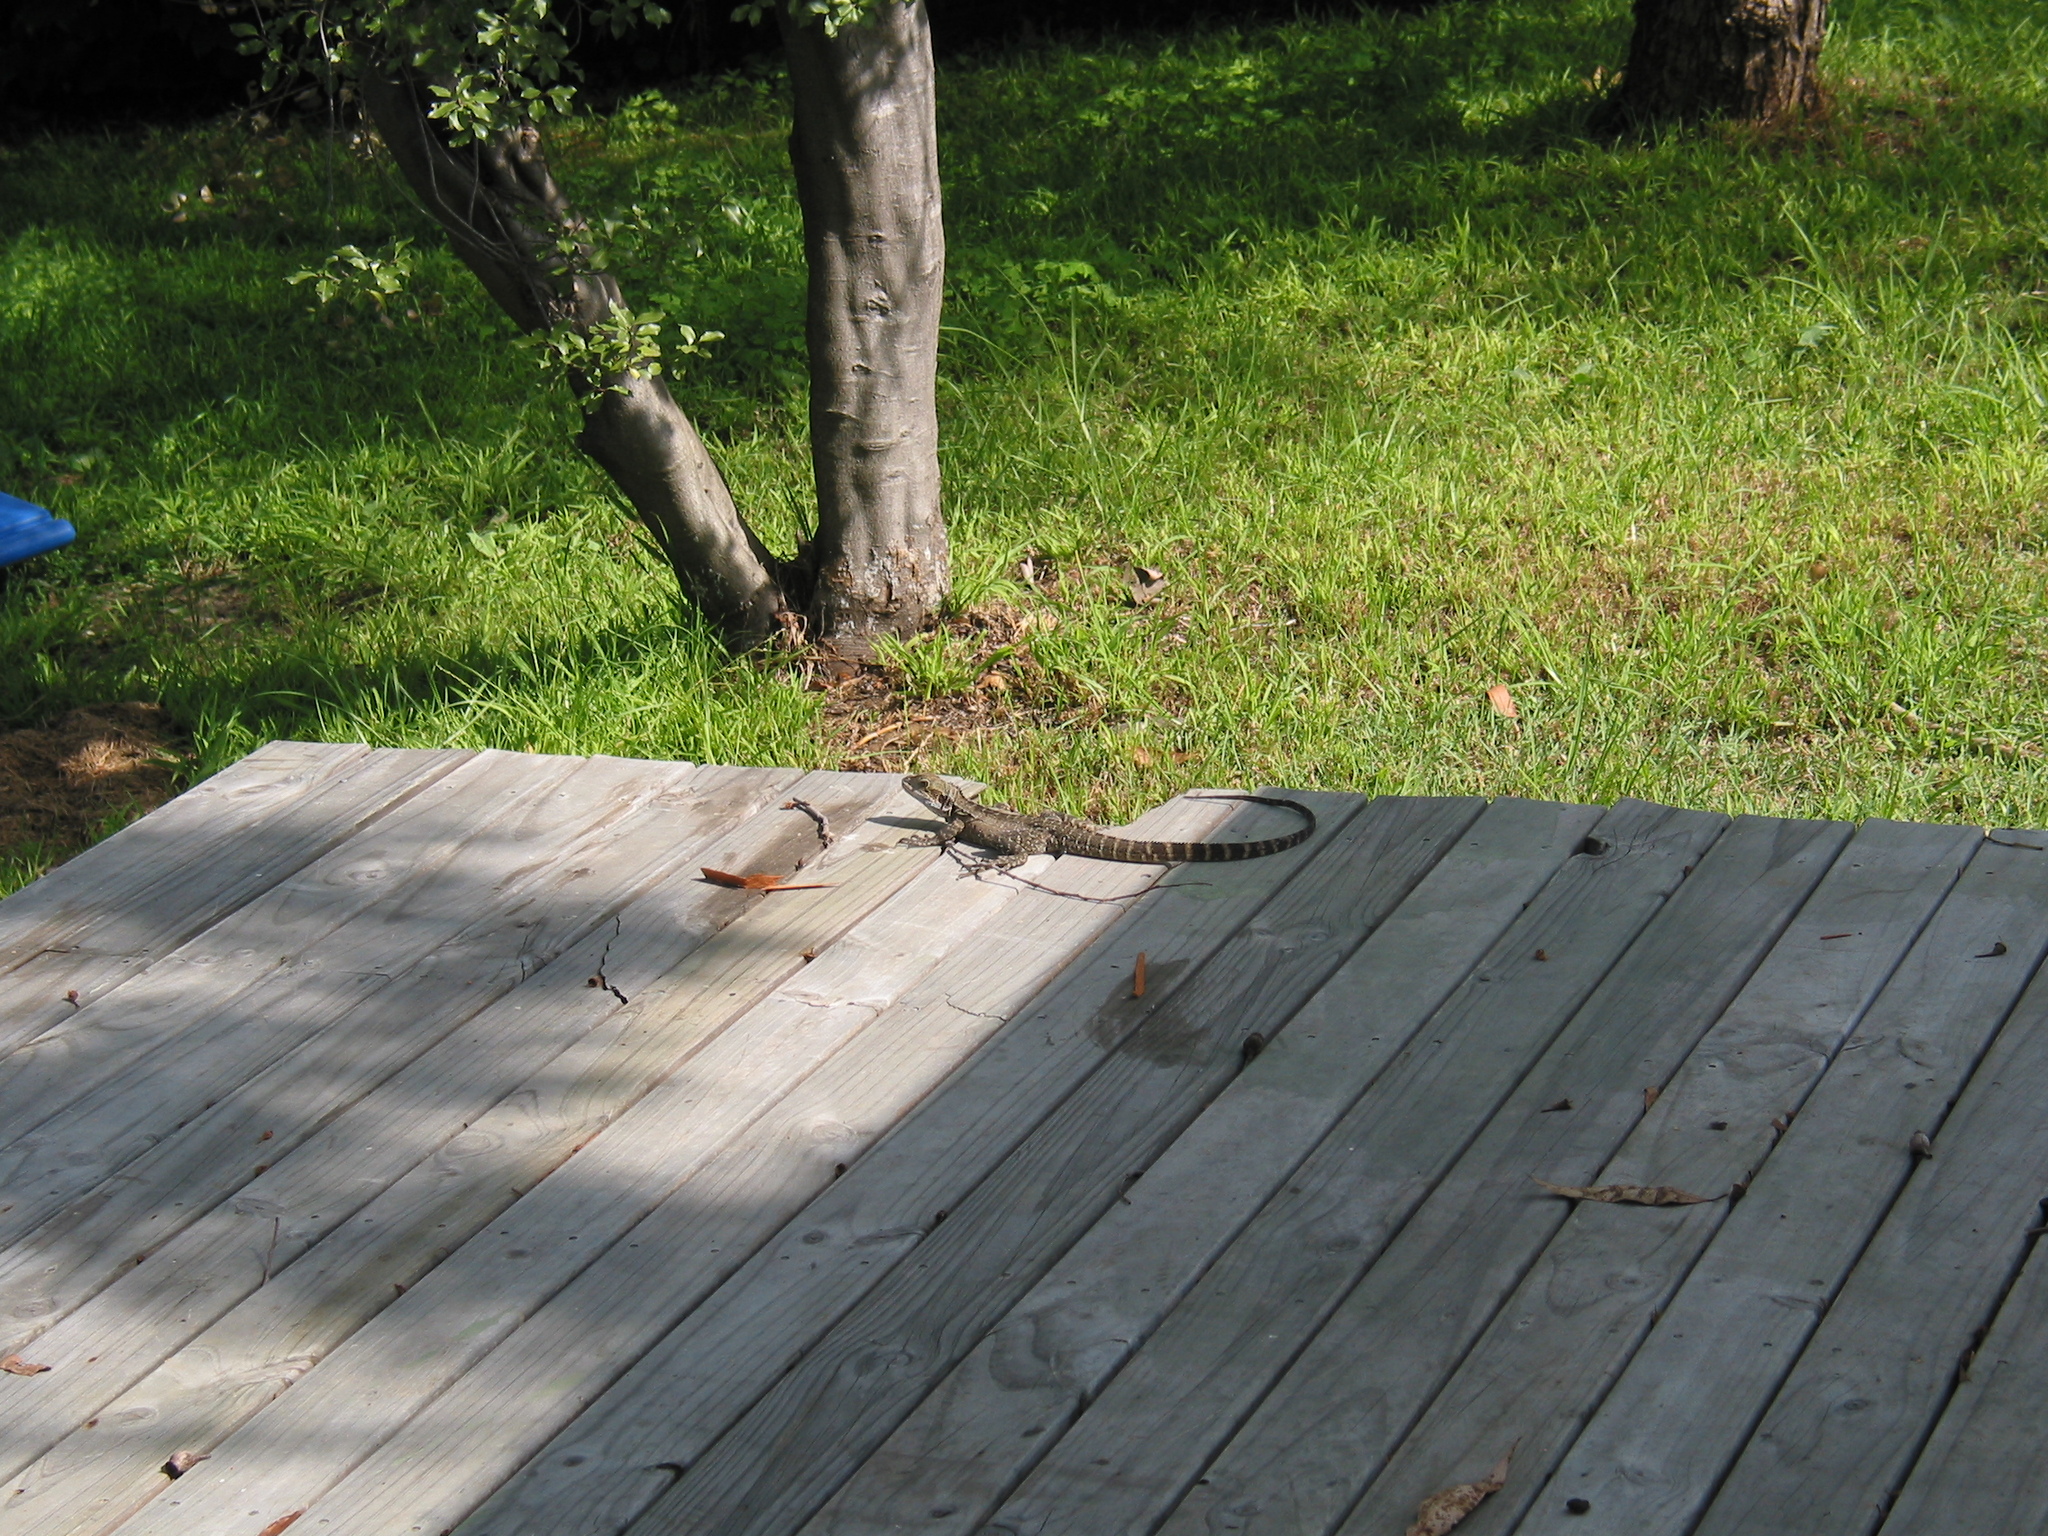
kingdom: Animalia
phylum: Chordata
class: Squamata
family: Agamidae
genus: Intellagama
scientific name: Intellagama lesueurii
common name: Eastern water dragon
